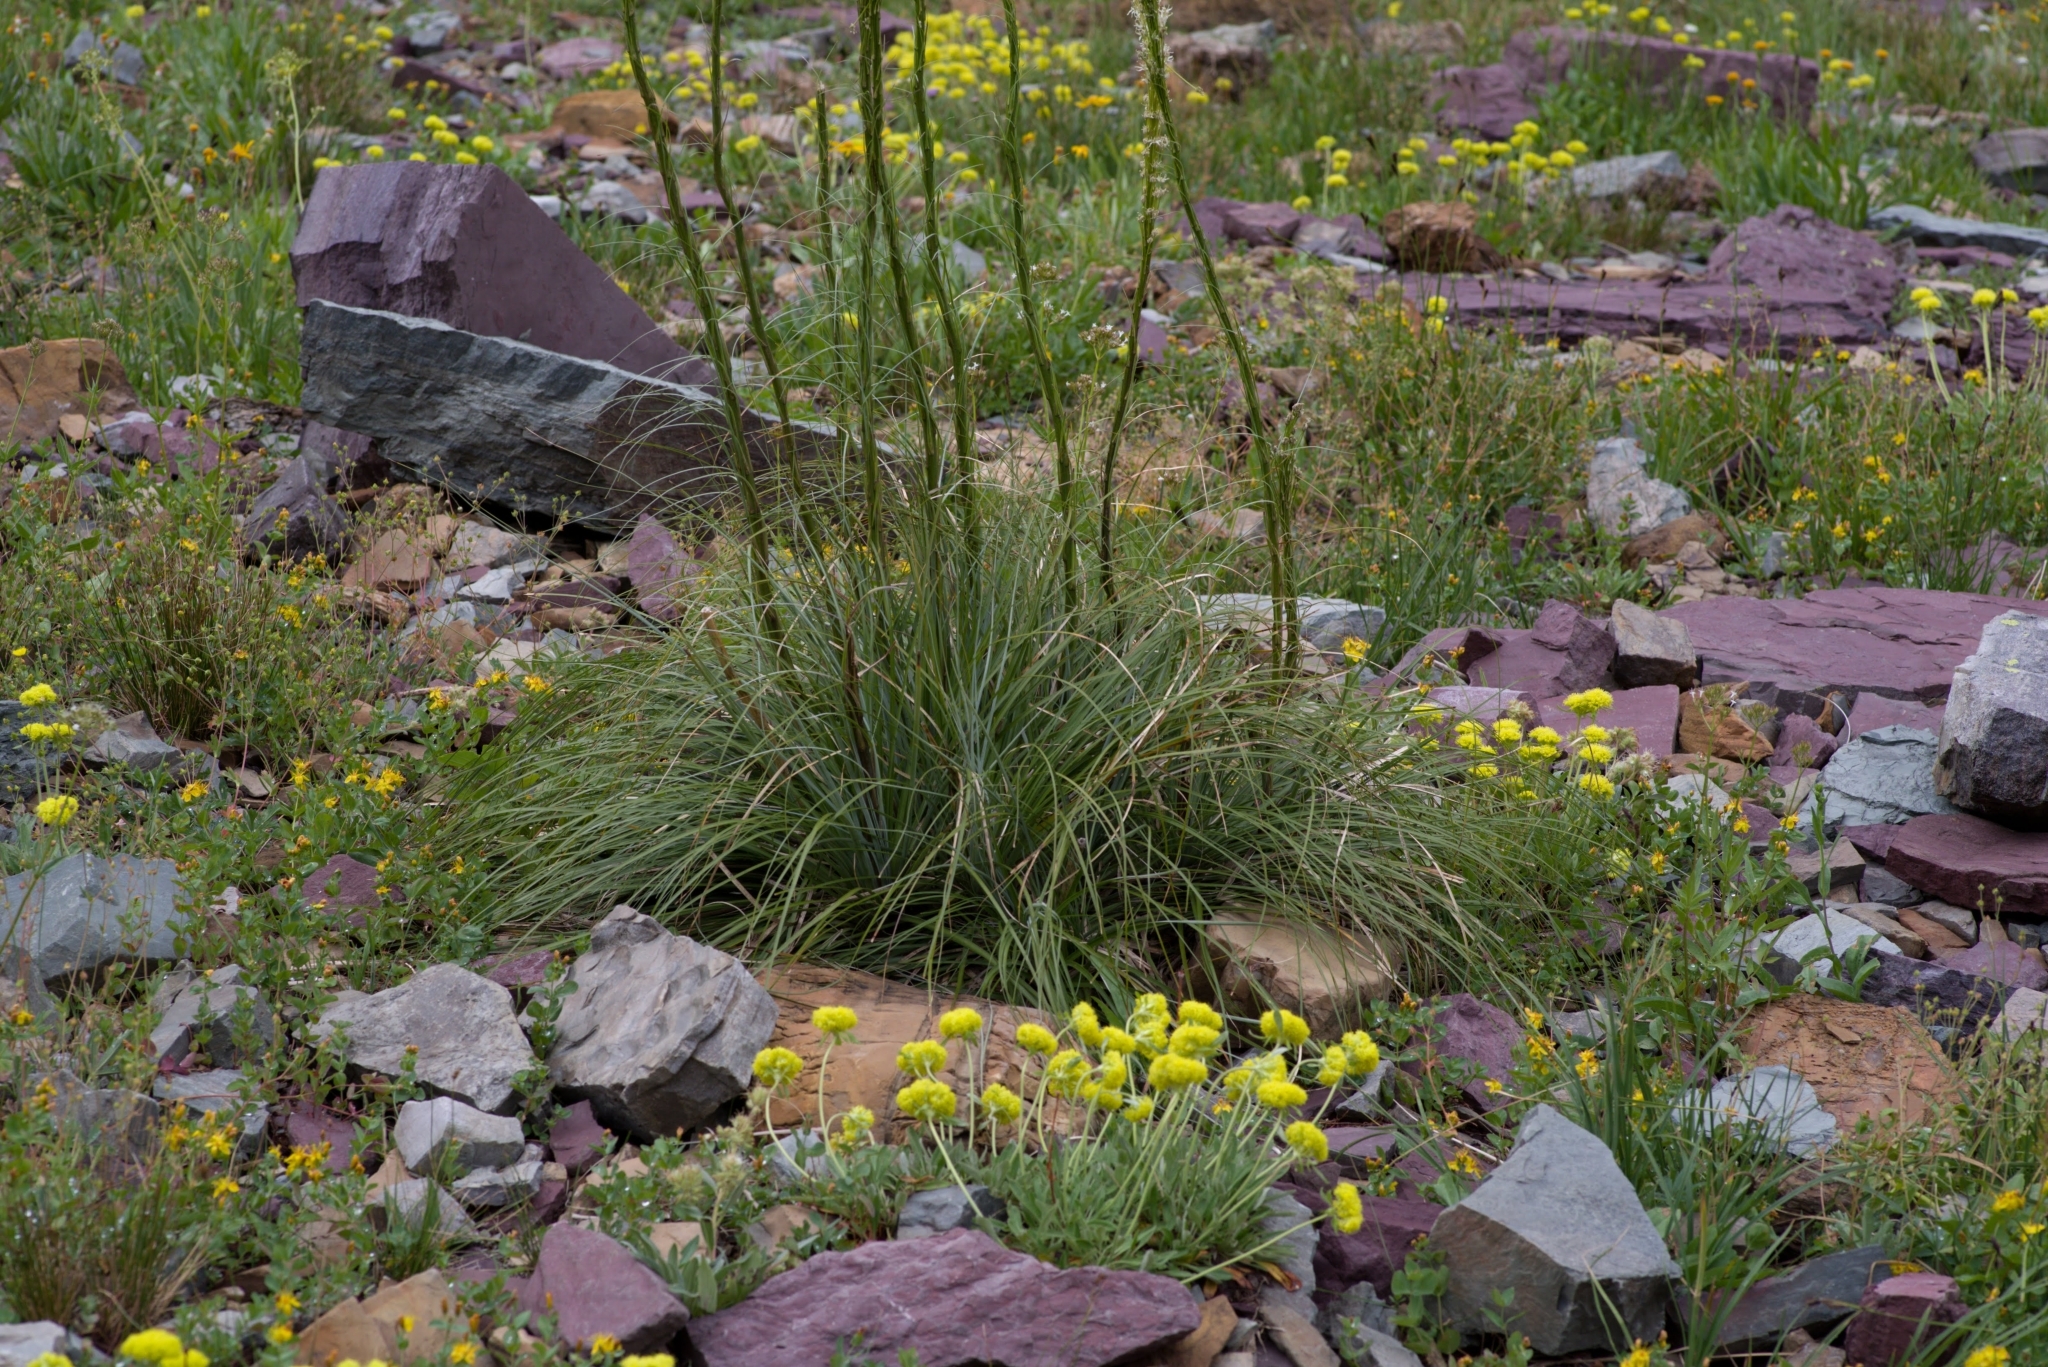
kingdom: Plantae
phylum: Tracheophyta
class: Liliopsida
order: Liliales
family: Melanthiaceae
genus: Xerophyllum
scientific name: Xerophyllum tenax
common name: Bear-grass
